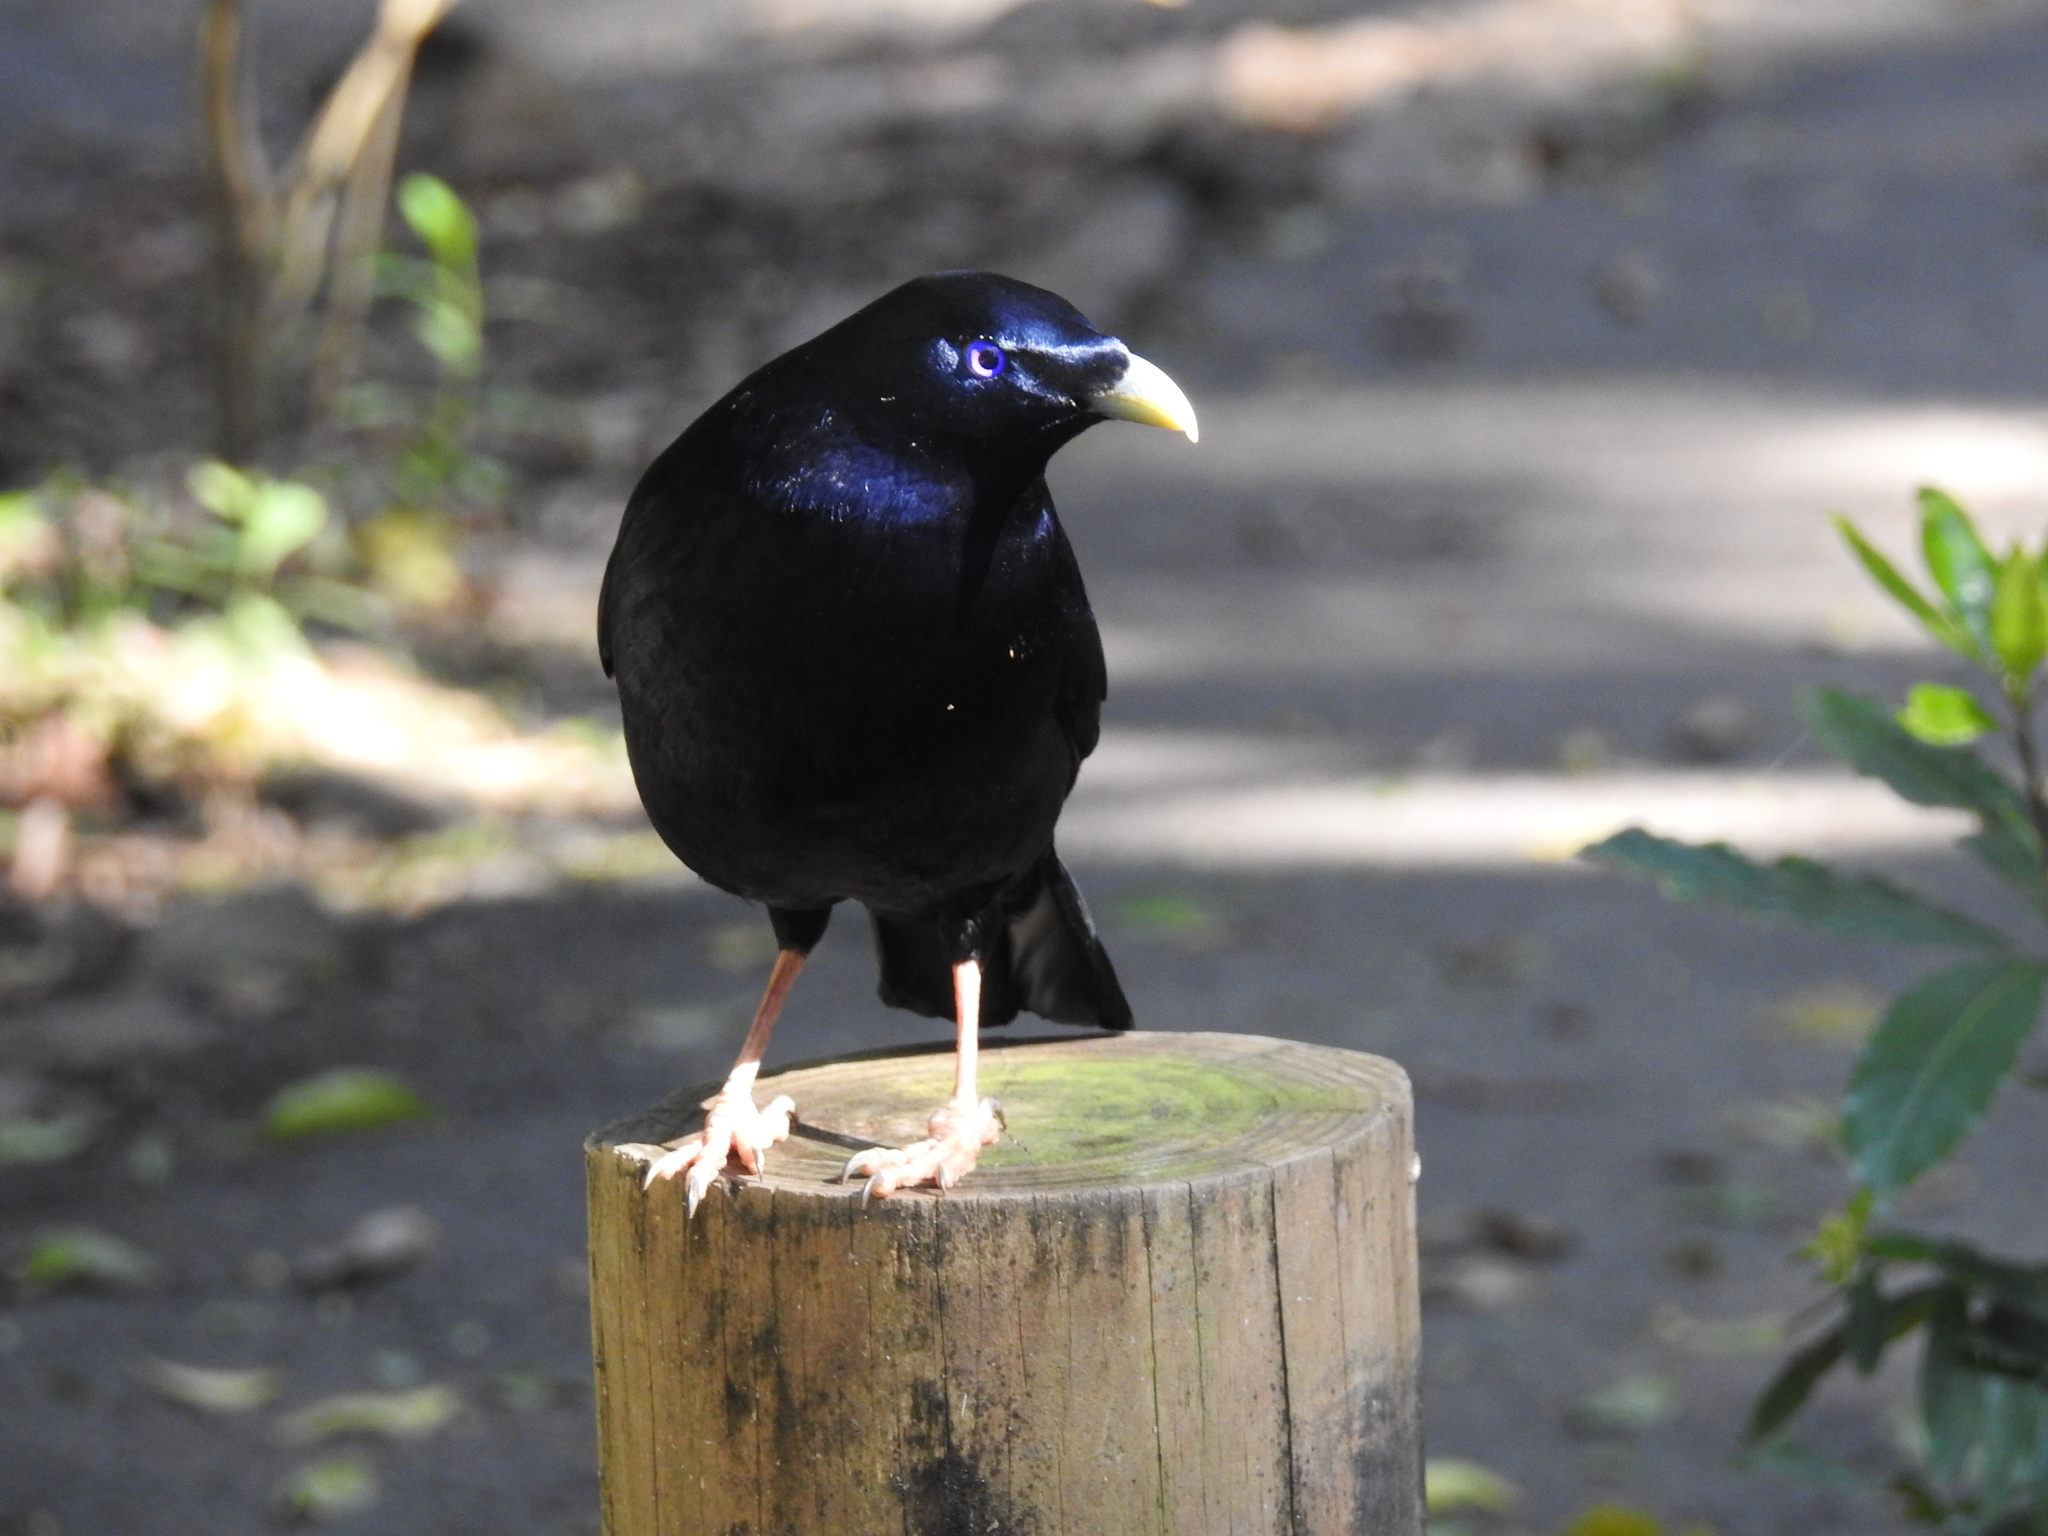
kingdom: Animalia
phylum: Chordata
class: Aves
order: Passeriformes
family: Ptilonorhynchidae
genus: Ptilonorhynchus
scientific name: Ptilonorhynchus violaceus
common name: Satin bowerbird
